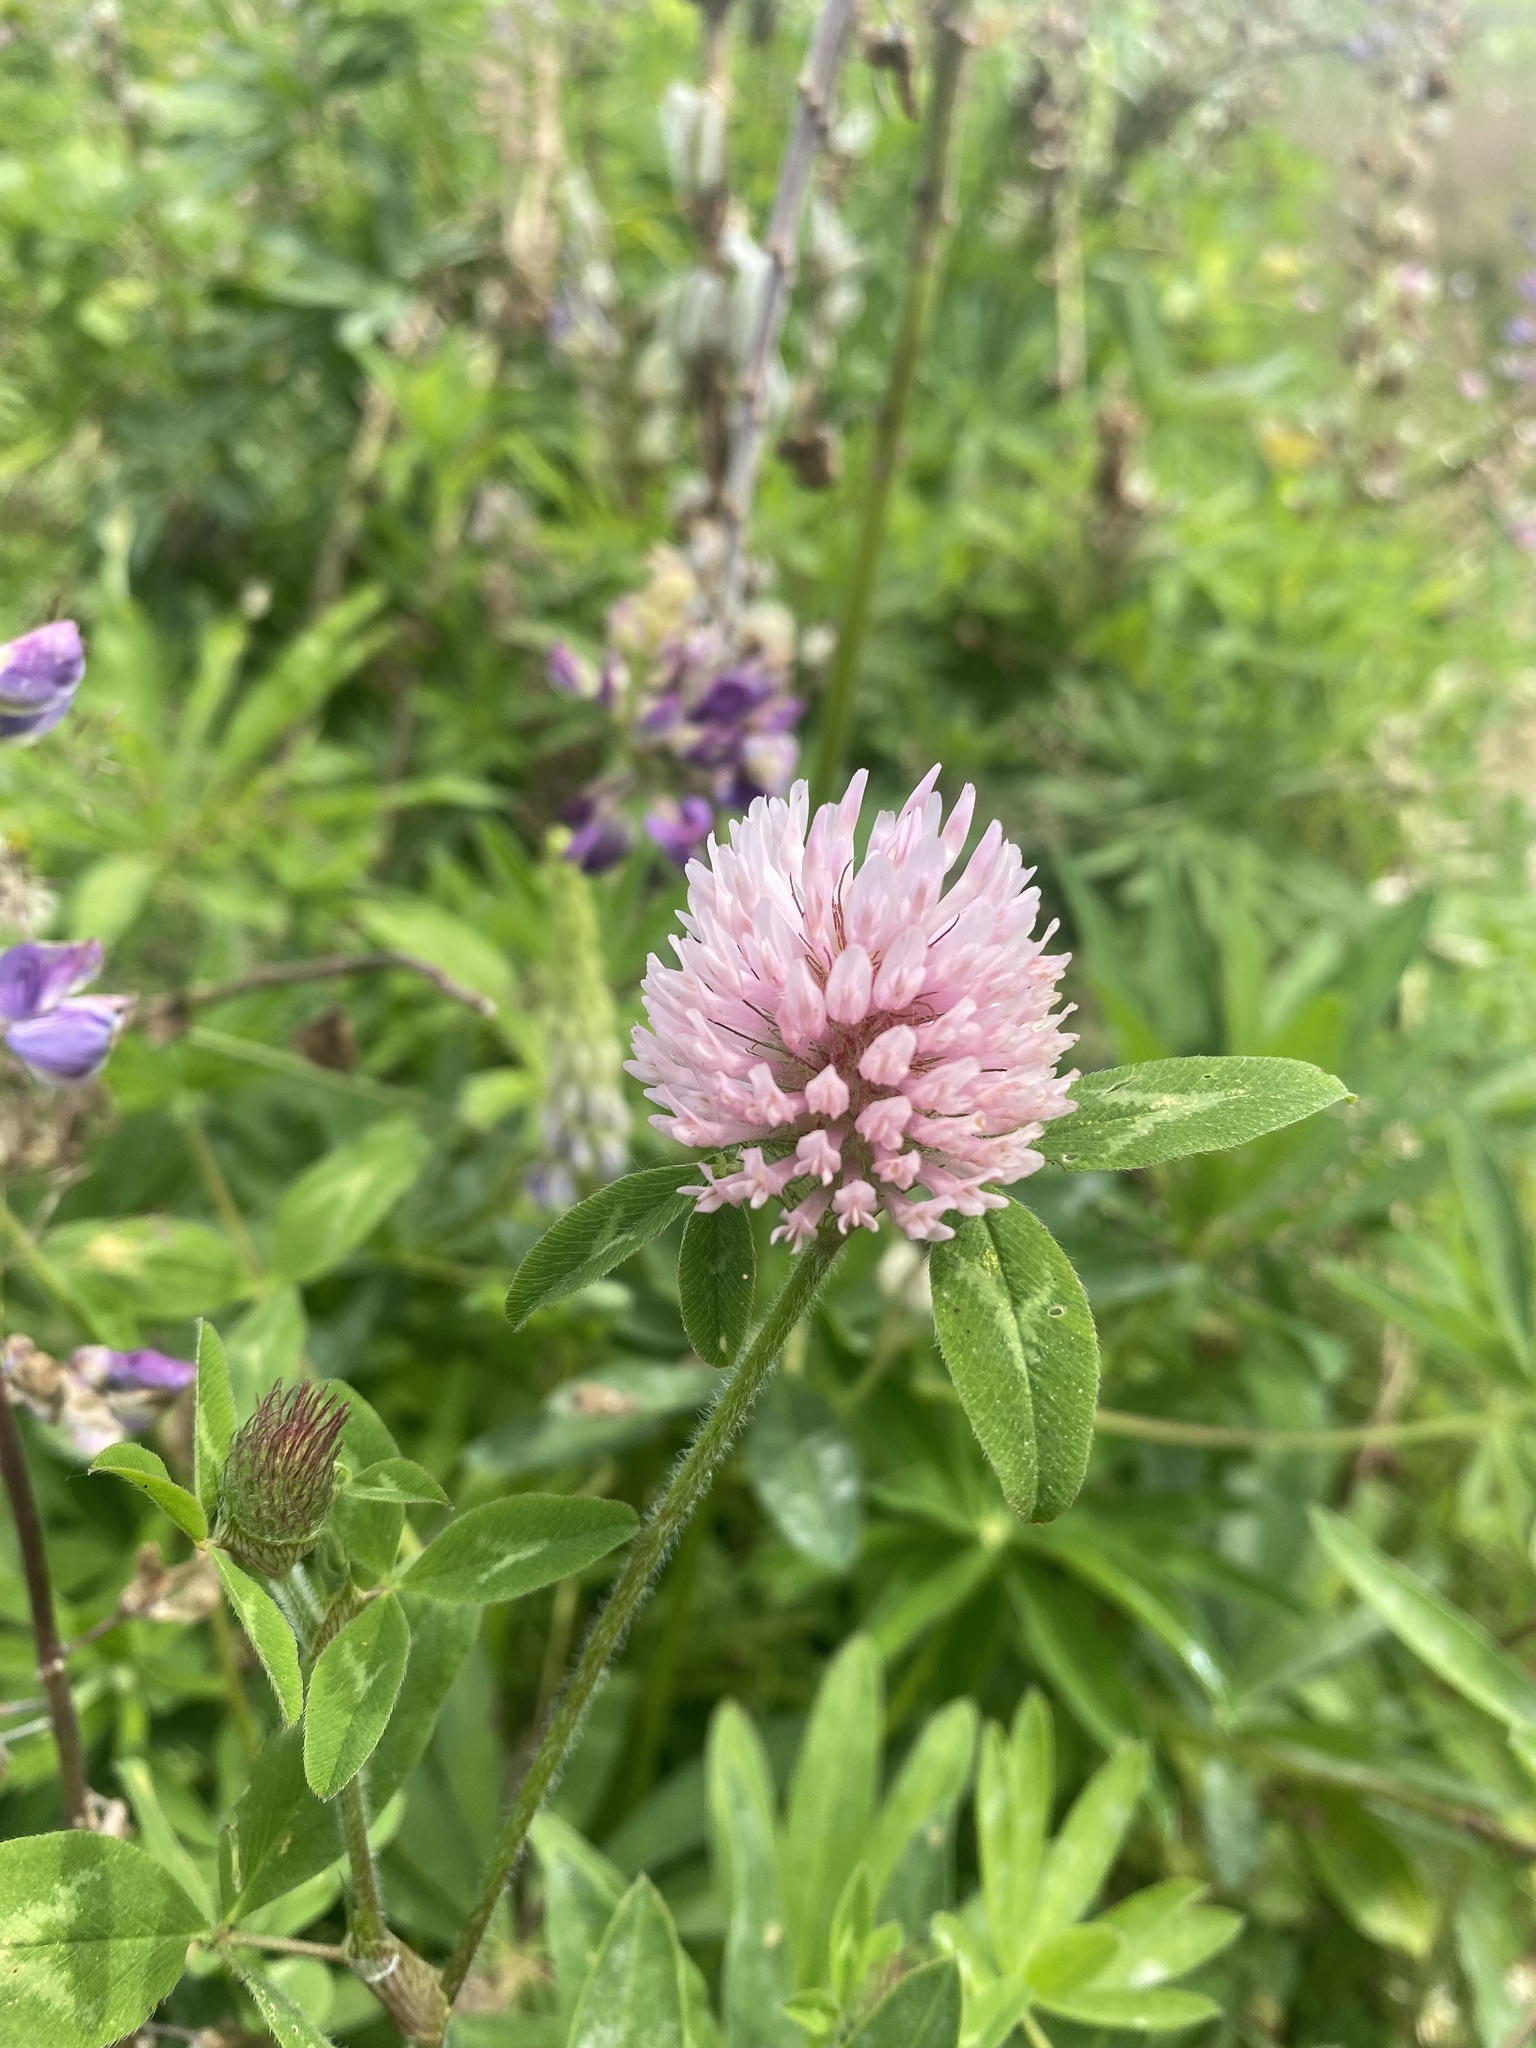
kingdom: Plantae
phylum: Tracheophyta
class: Magnoliopsida
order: Fabales
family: Fabaceae
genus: Trifolium
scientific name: Trifolium pratense
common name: Red clover
